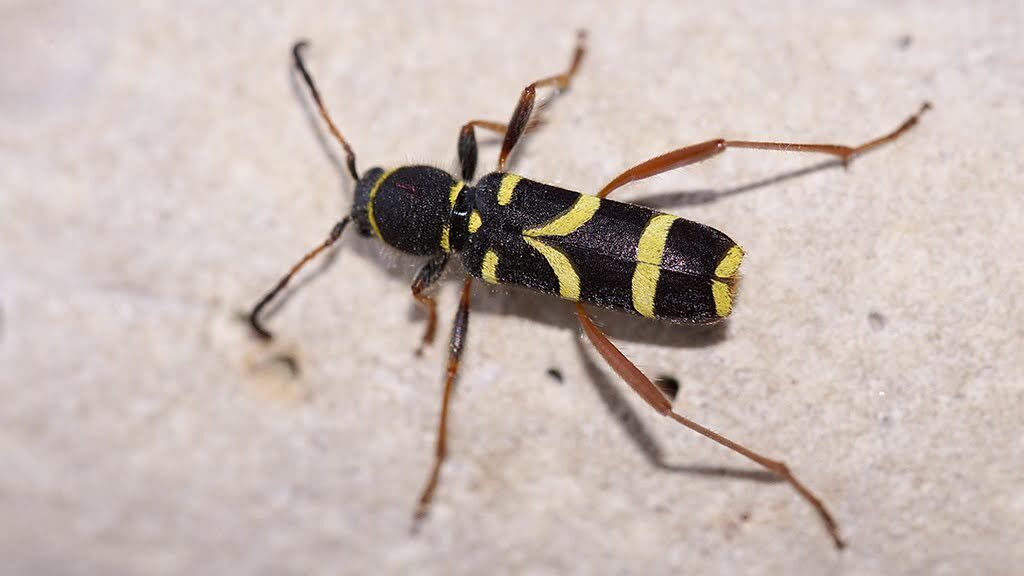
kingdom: Animalia
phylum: Arthropoda
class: Insecta
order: Coleoptera
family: Cerambycidae
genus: Clytus
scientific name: Clytus arietis
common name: Wasp beetle
